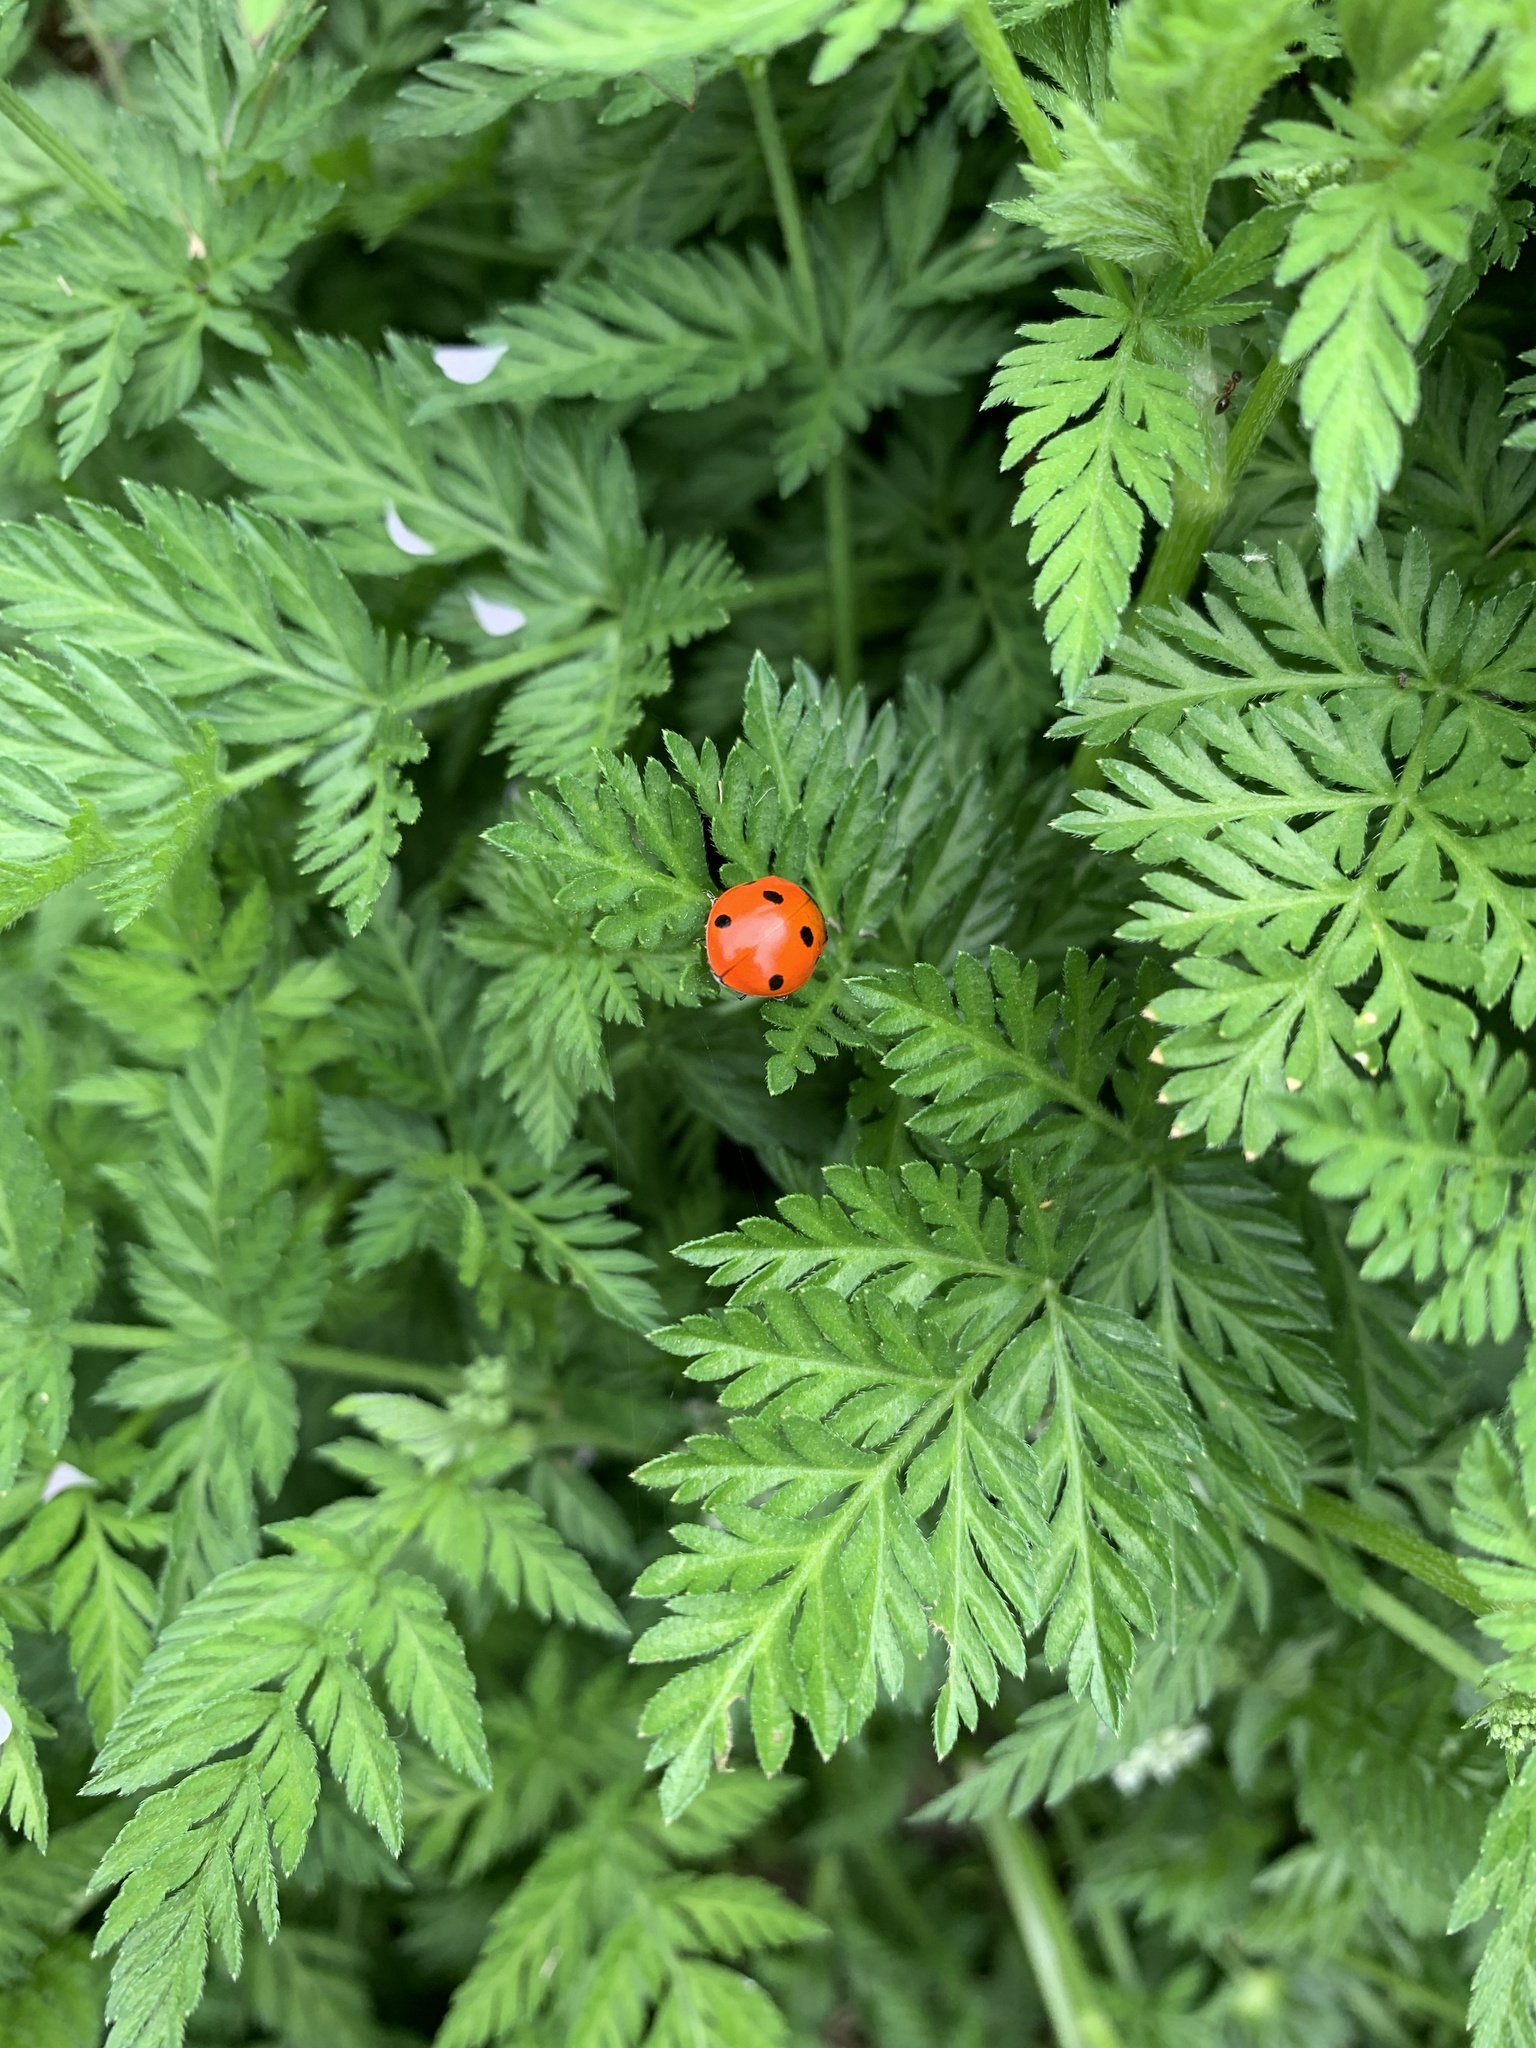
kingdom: Animalia
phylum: Arthropoda
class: Insecta
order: Coleoptera
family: Coccinellidae
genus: Coccinella
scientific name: Coccinella septempunctata
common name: Sevenspotted lady beetle
